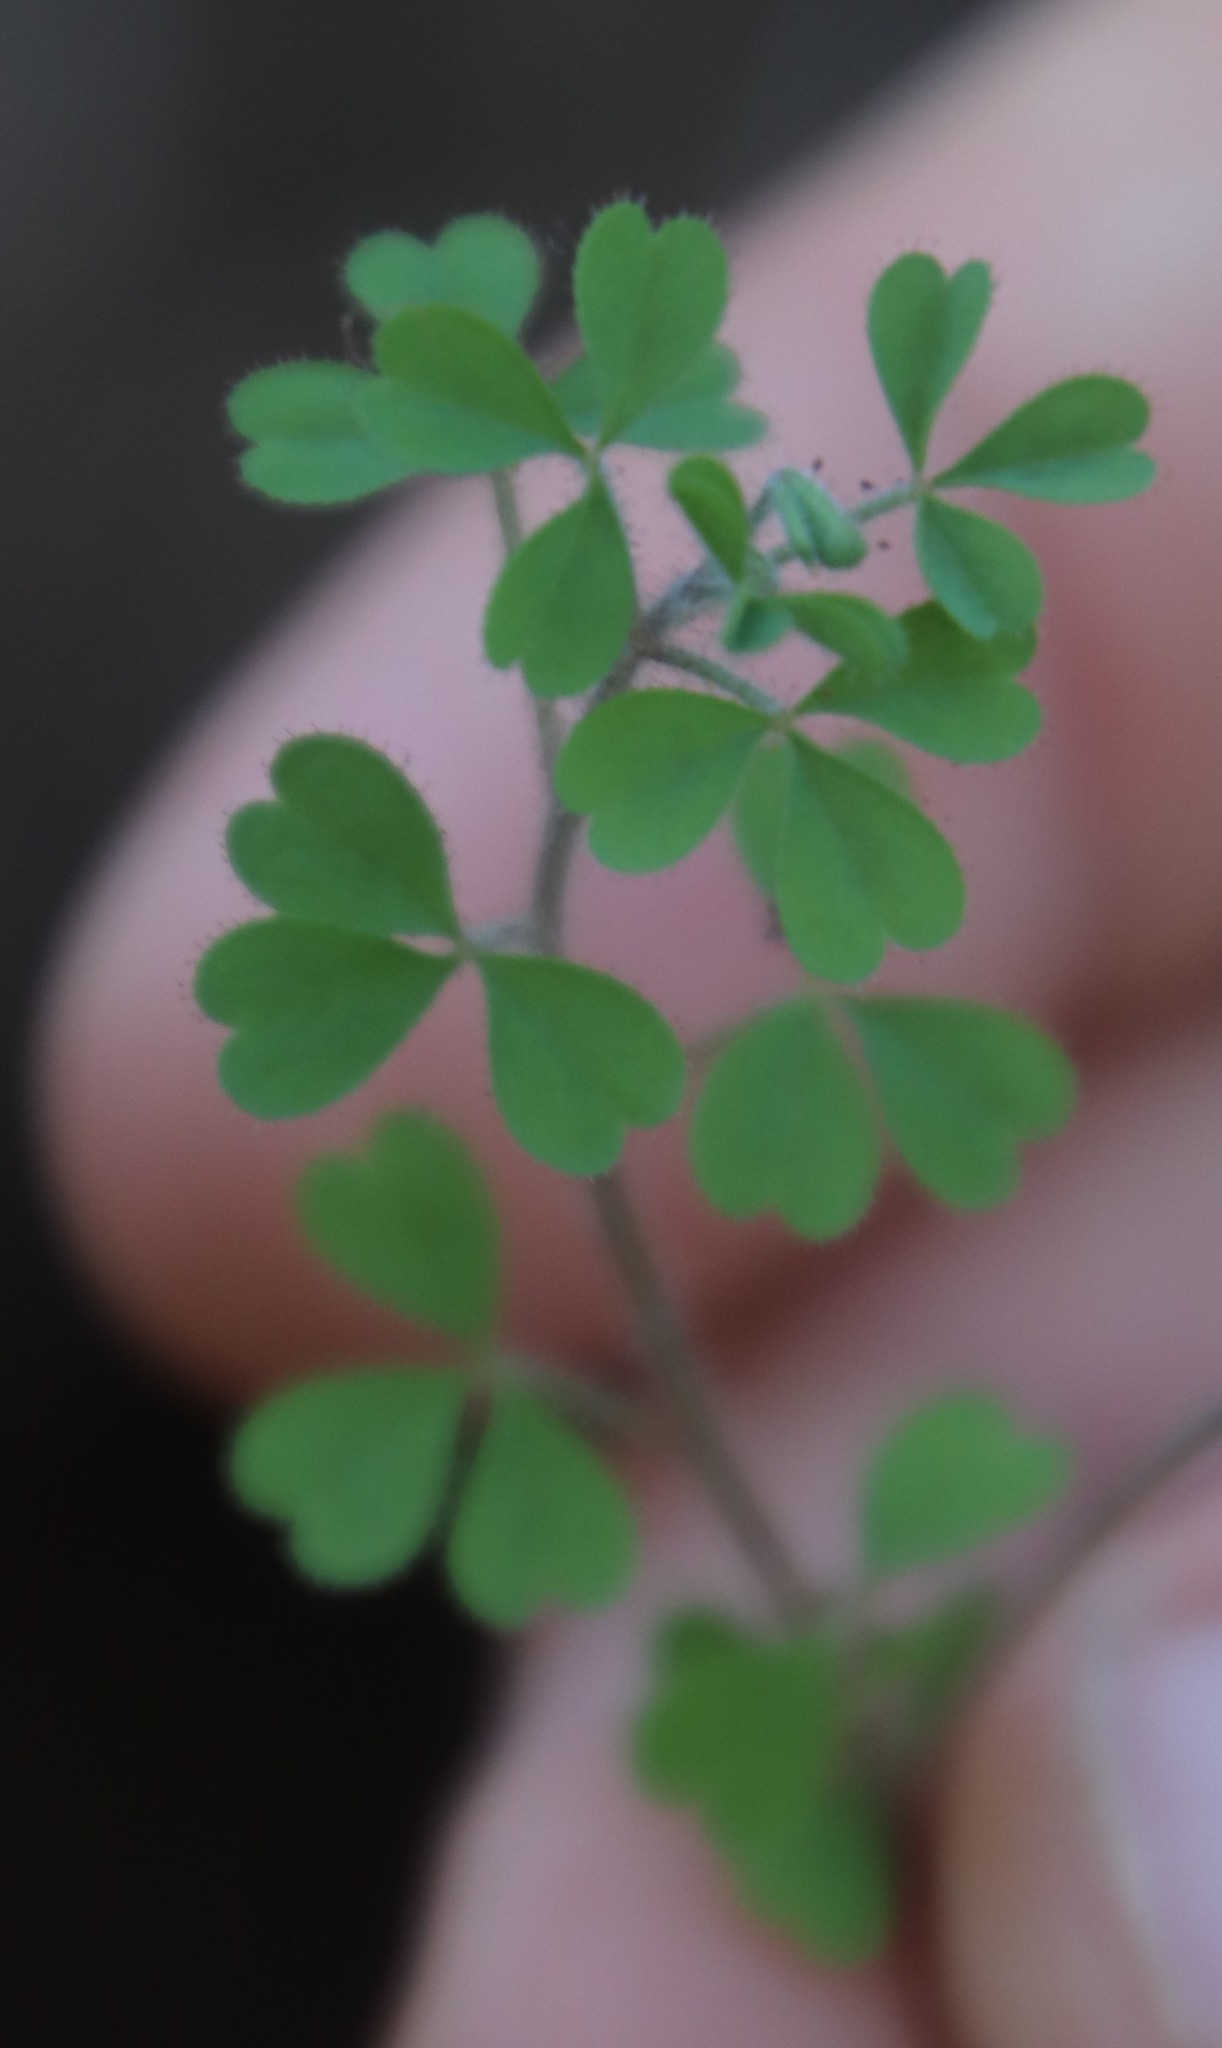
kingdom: Plantae
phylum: Tracheophyta
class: Magnoliopsida
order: Oxalidales
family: Oxalidaceae
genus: Oxalis
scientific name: Oxalis ebracteata
